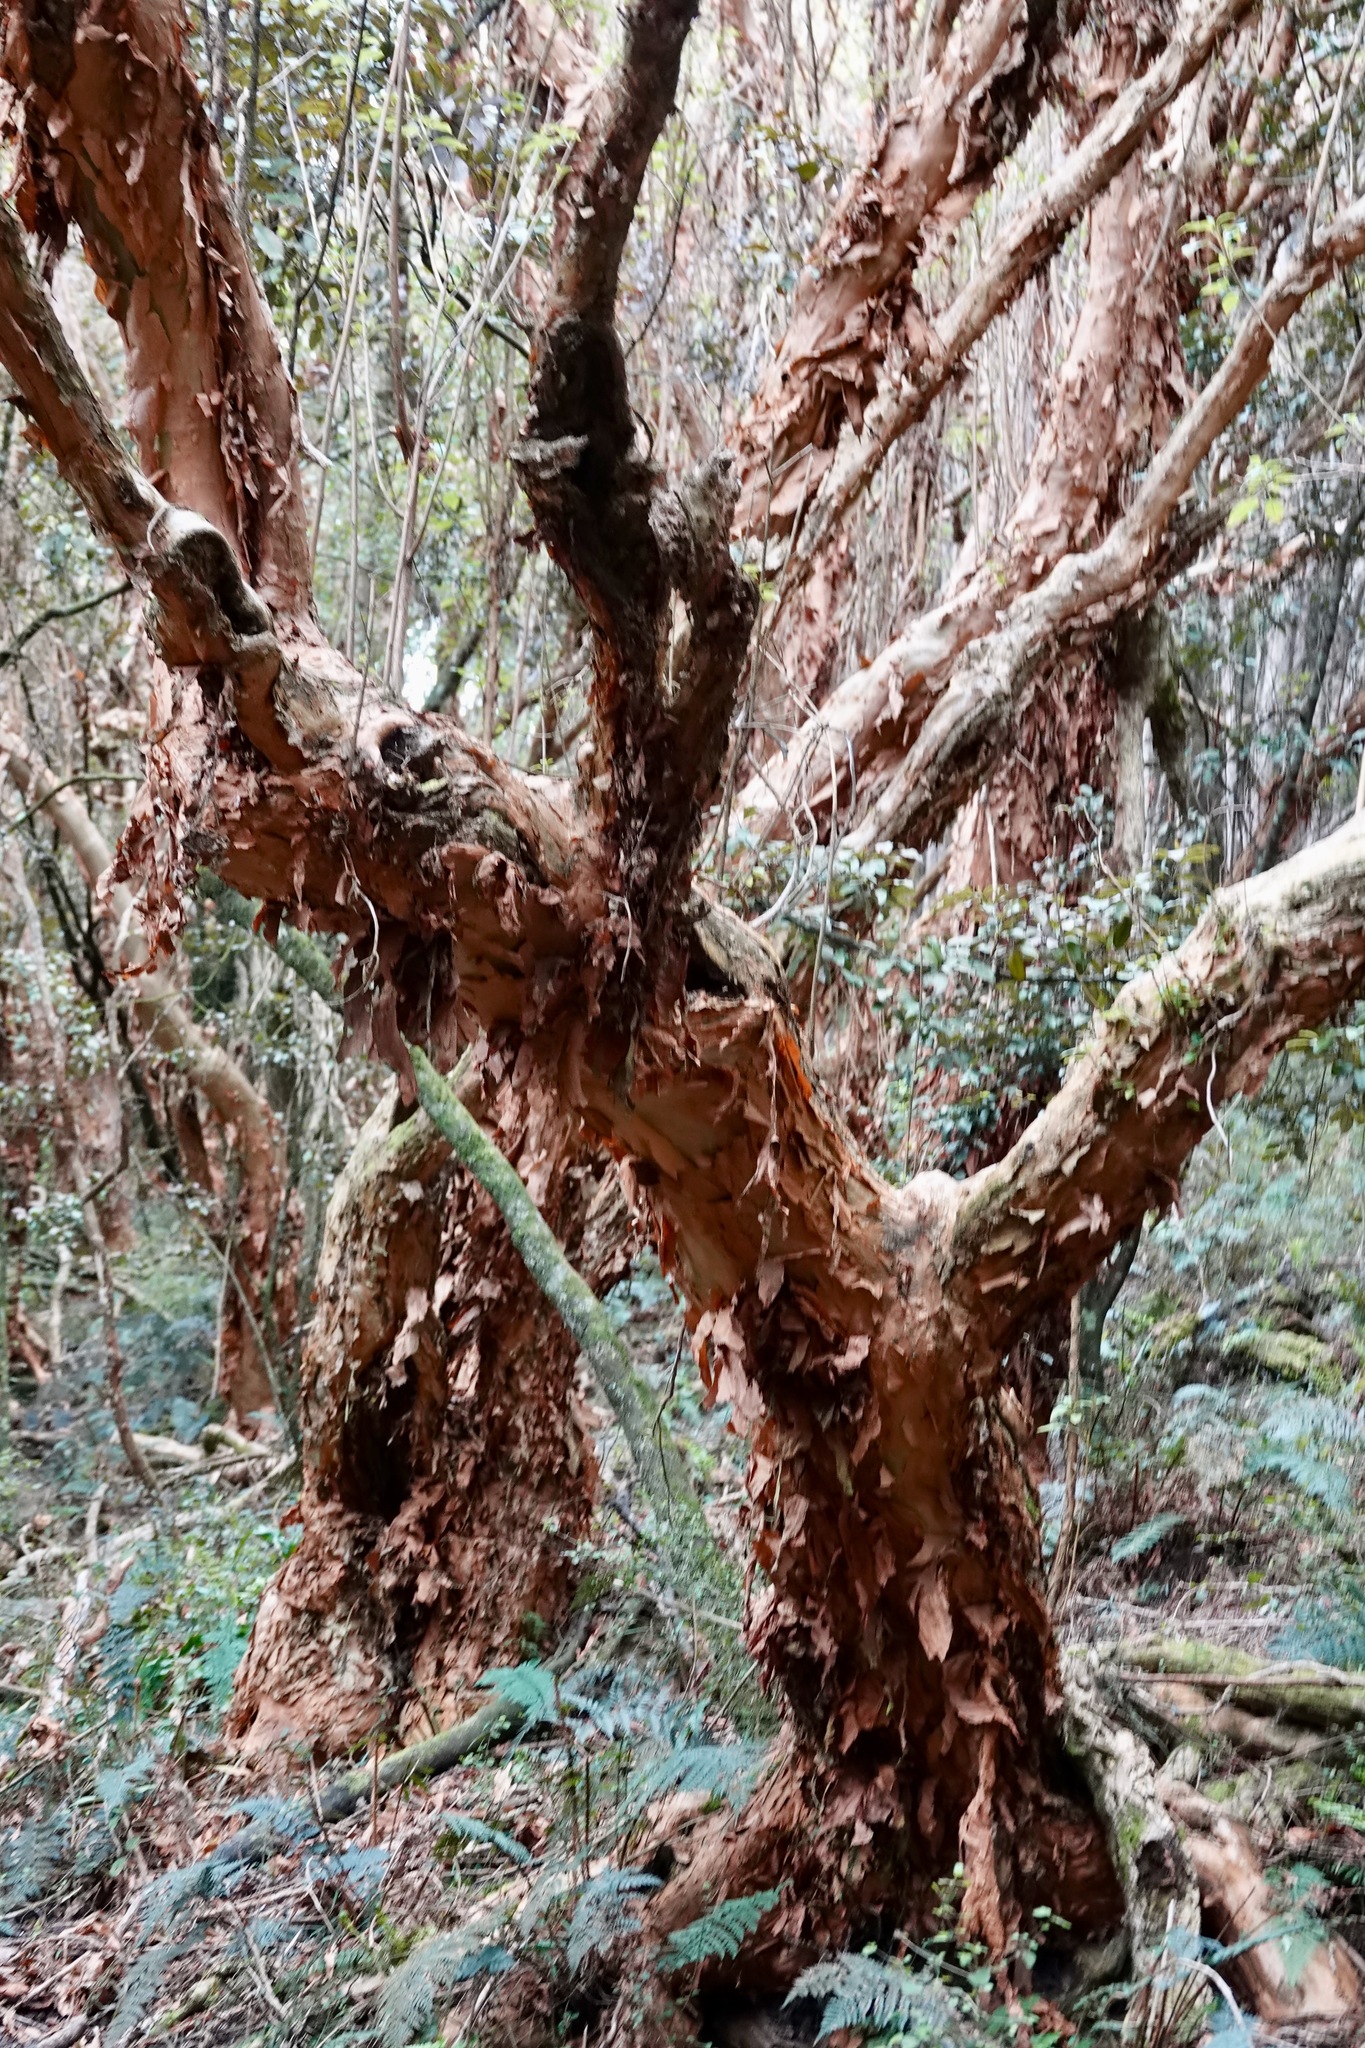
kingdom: Plantae
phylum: Tracheophyta
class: Magnoliopsida
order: Myrtales
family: Onagraceae
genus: Fuchsia
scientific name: Fuchsia excorticata
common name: Tree fuchsia
